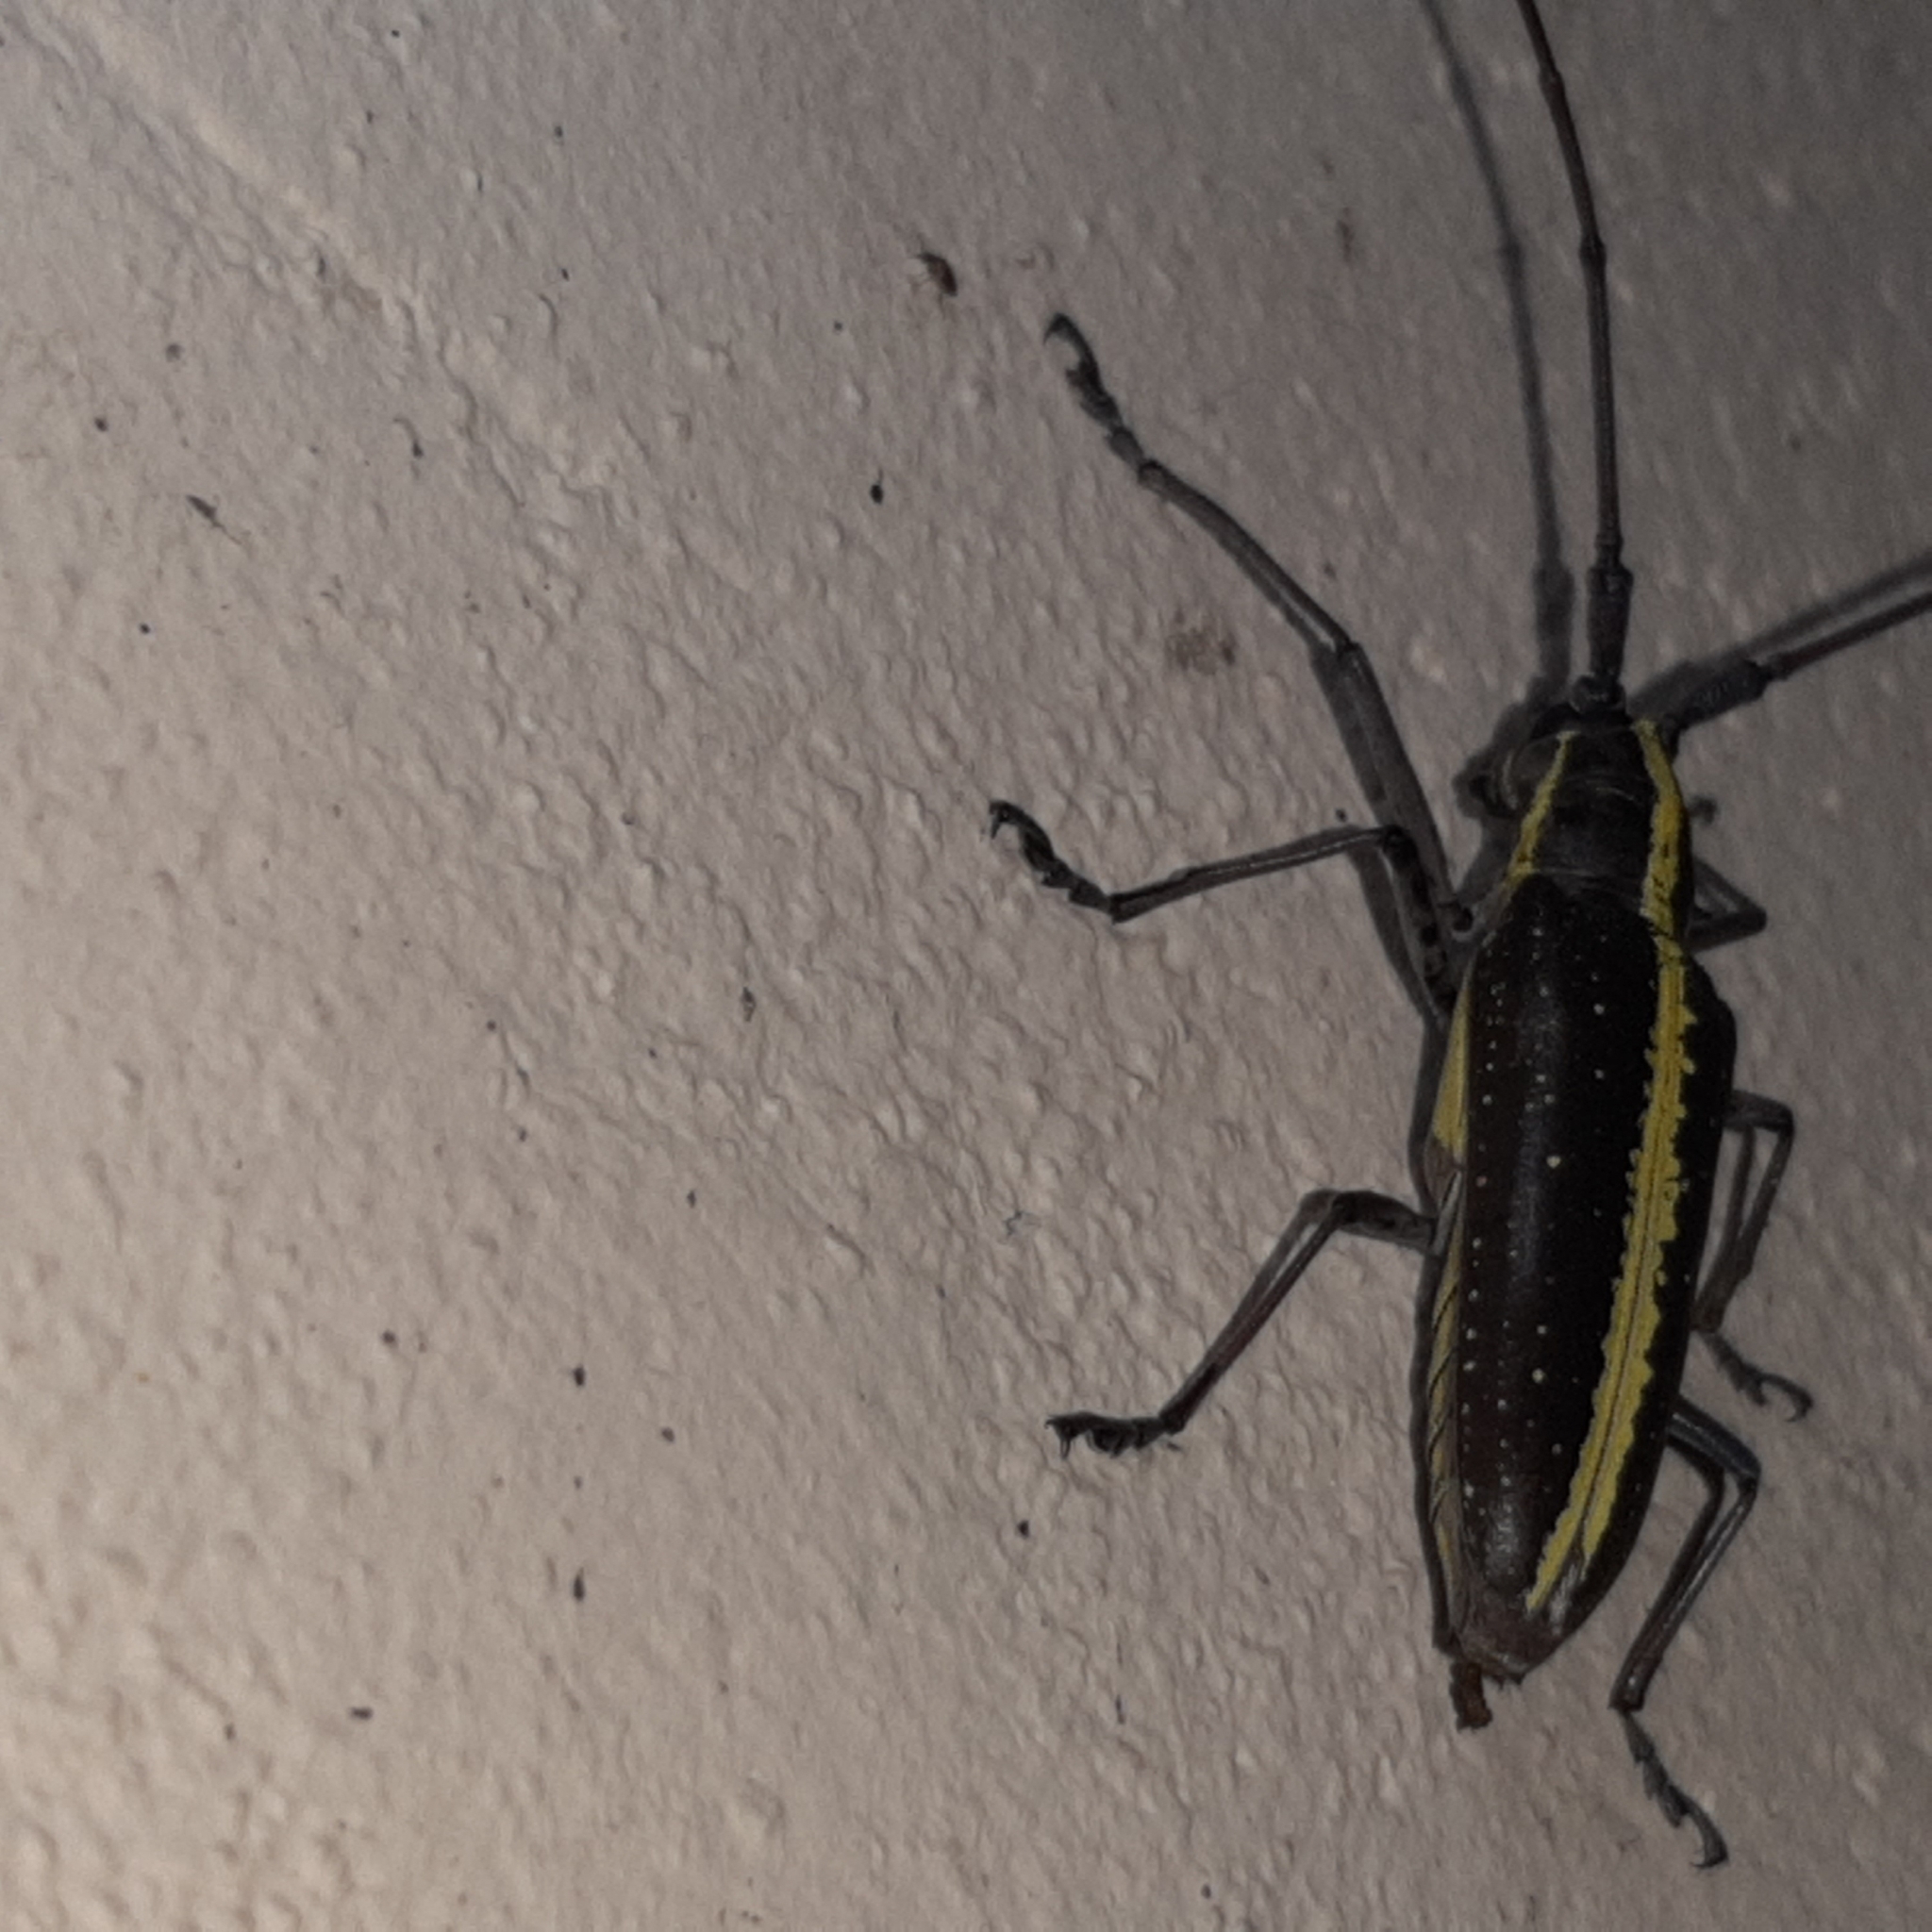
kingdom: Animalia
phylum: Arthropoda
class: Insecta
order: Coleoptera
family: Cerambycidae
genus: Taeniotes
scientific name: Taeniotes scalatus
